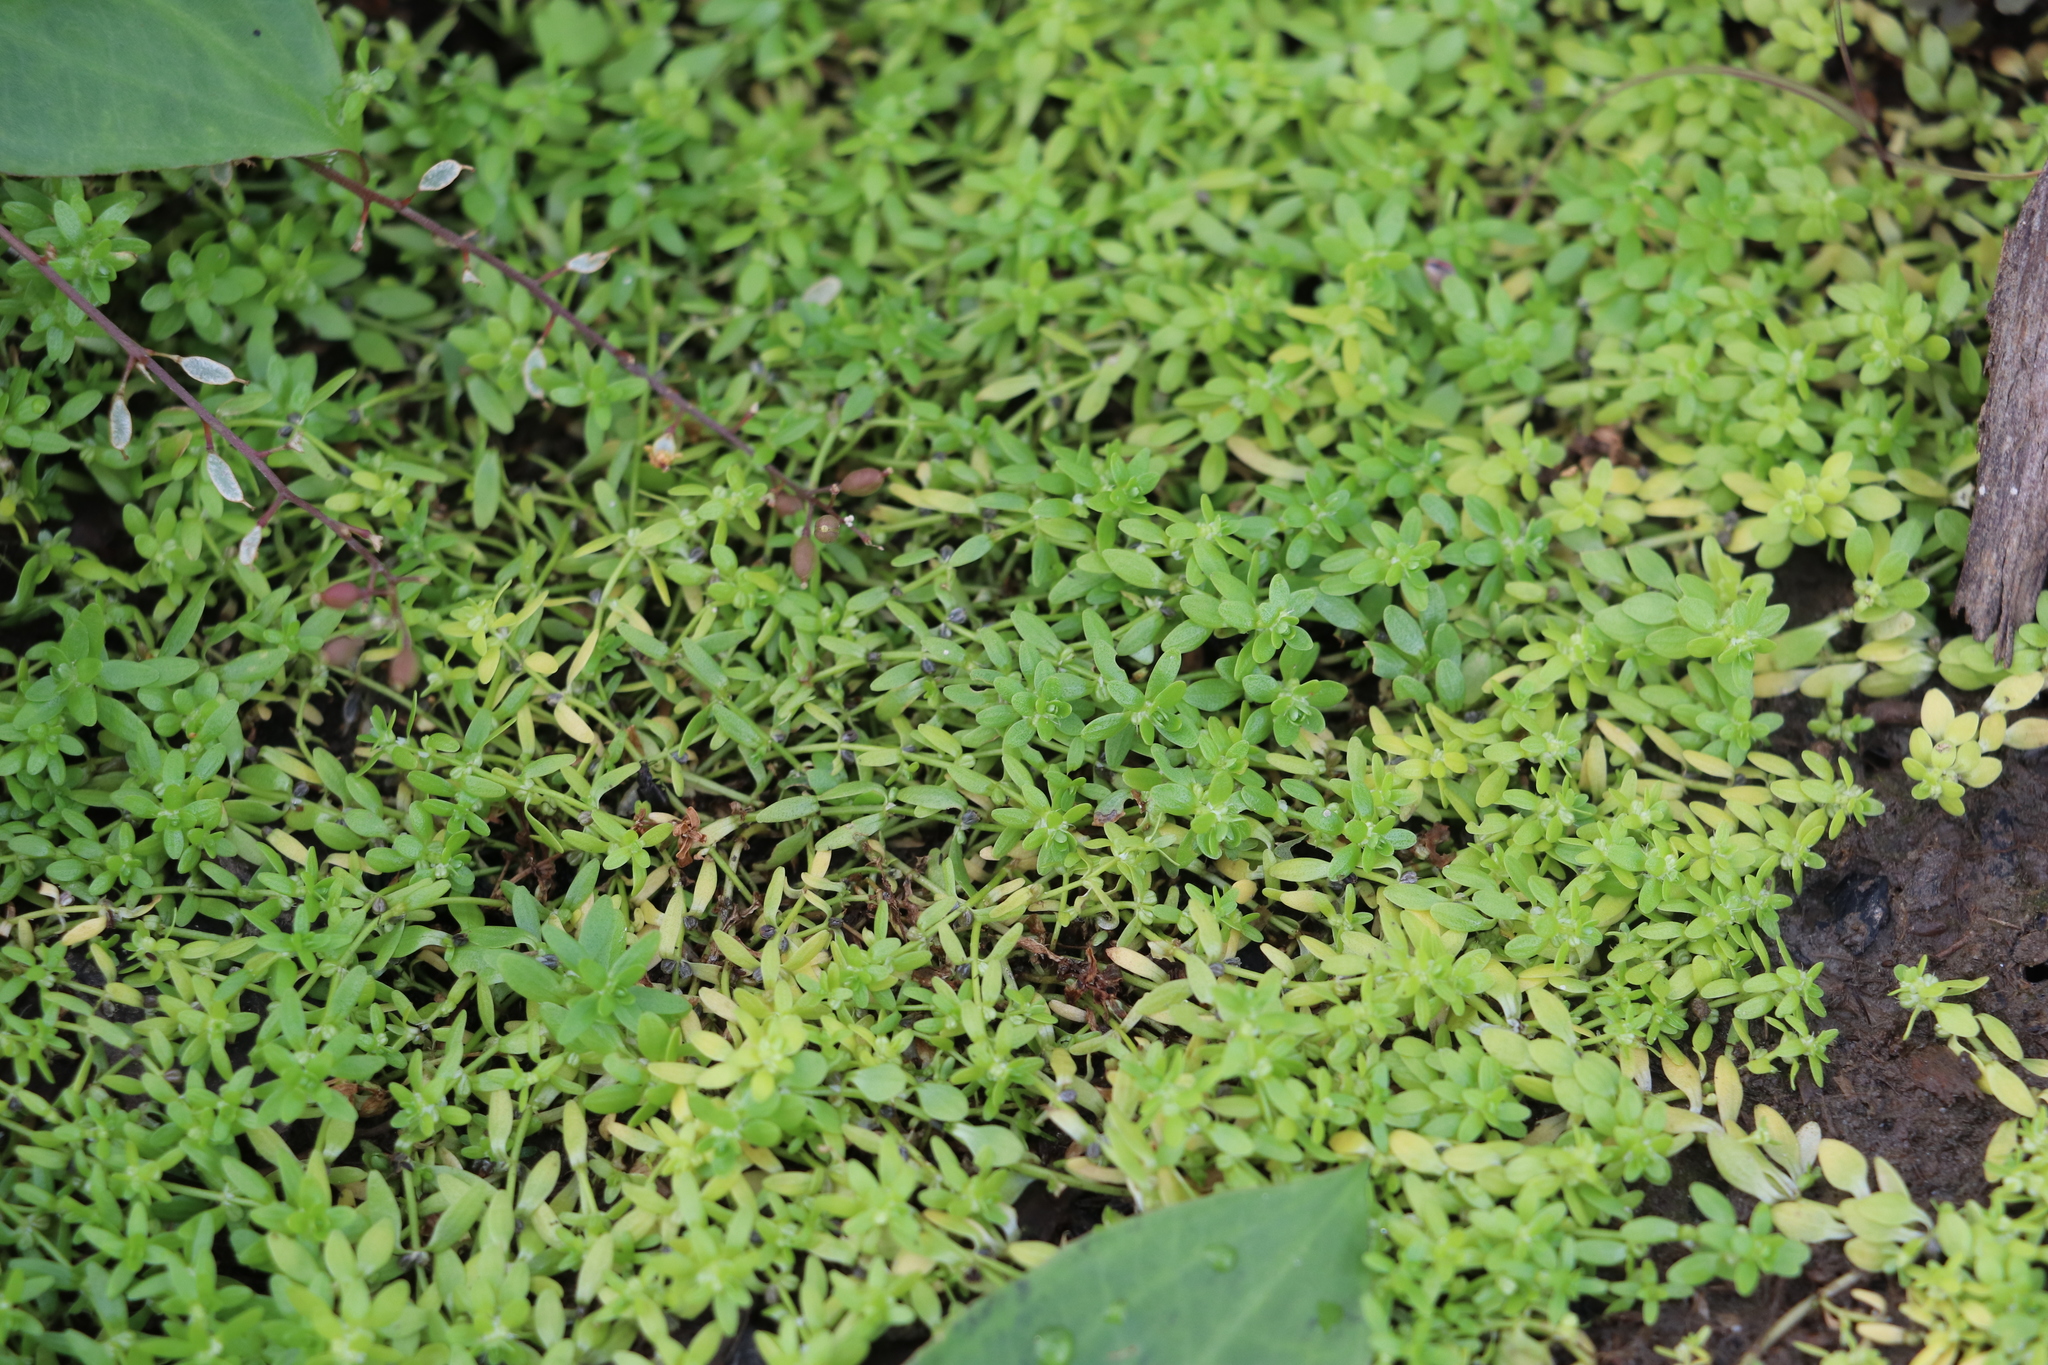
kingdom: Plantae
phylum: Tracheophyta
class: Magnoliopsida
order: Lamiales
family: Plantaginaceae
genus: Callitriche
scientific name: Callitriche palustris
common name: Spring water-starwort
